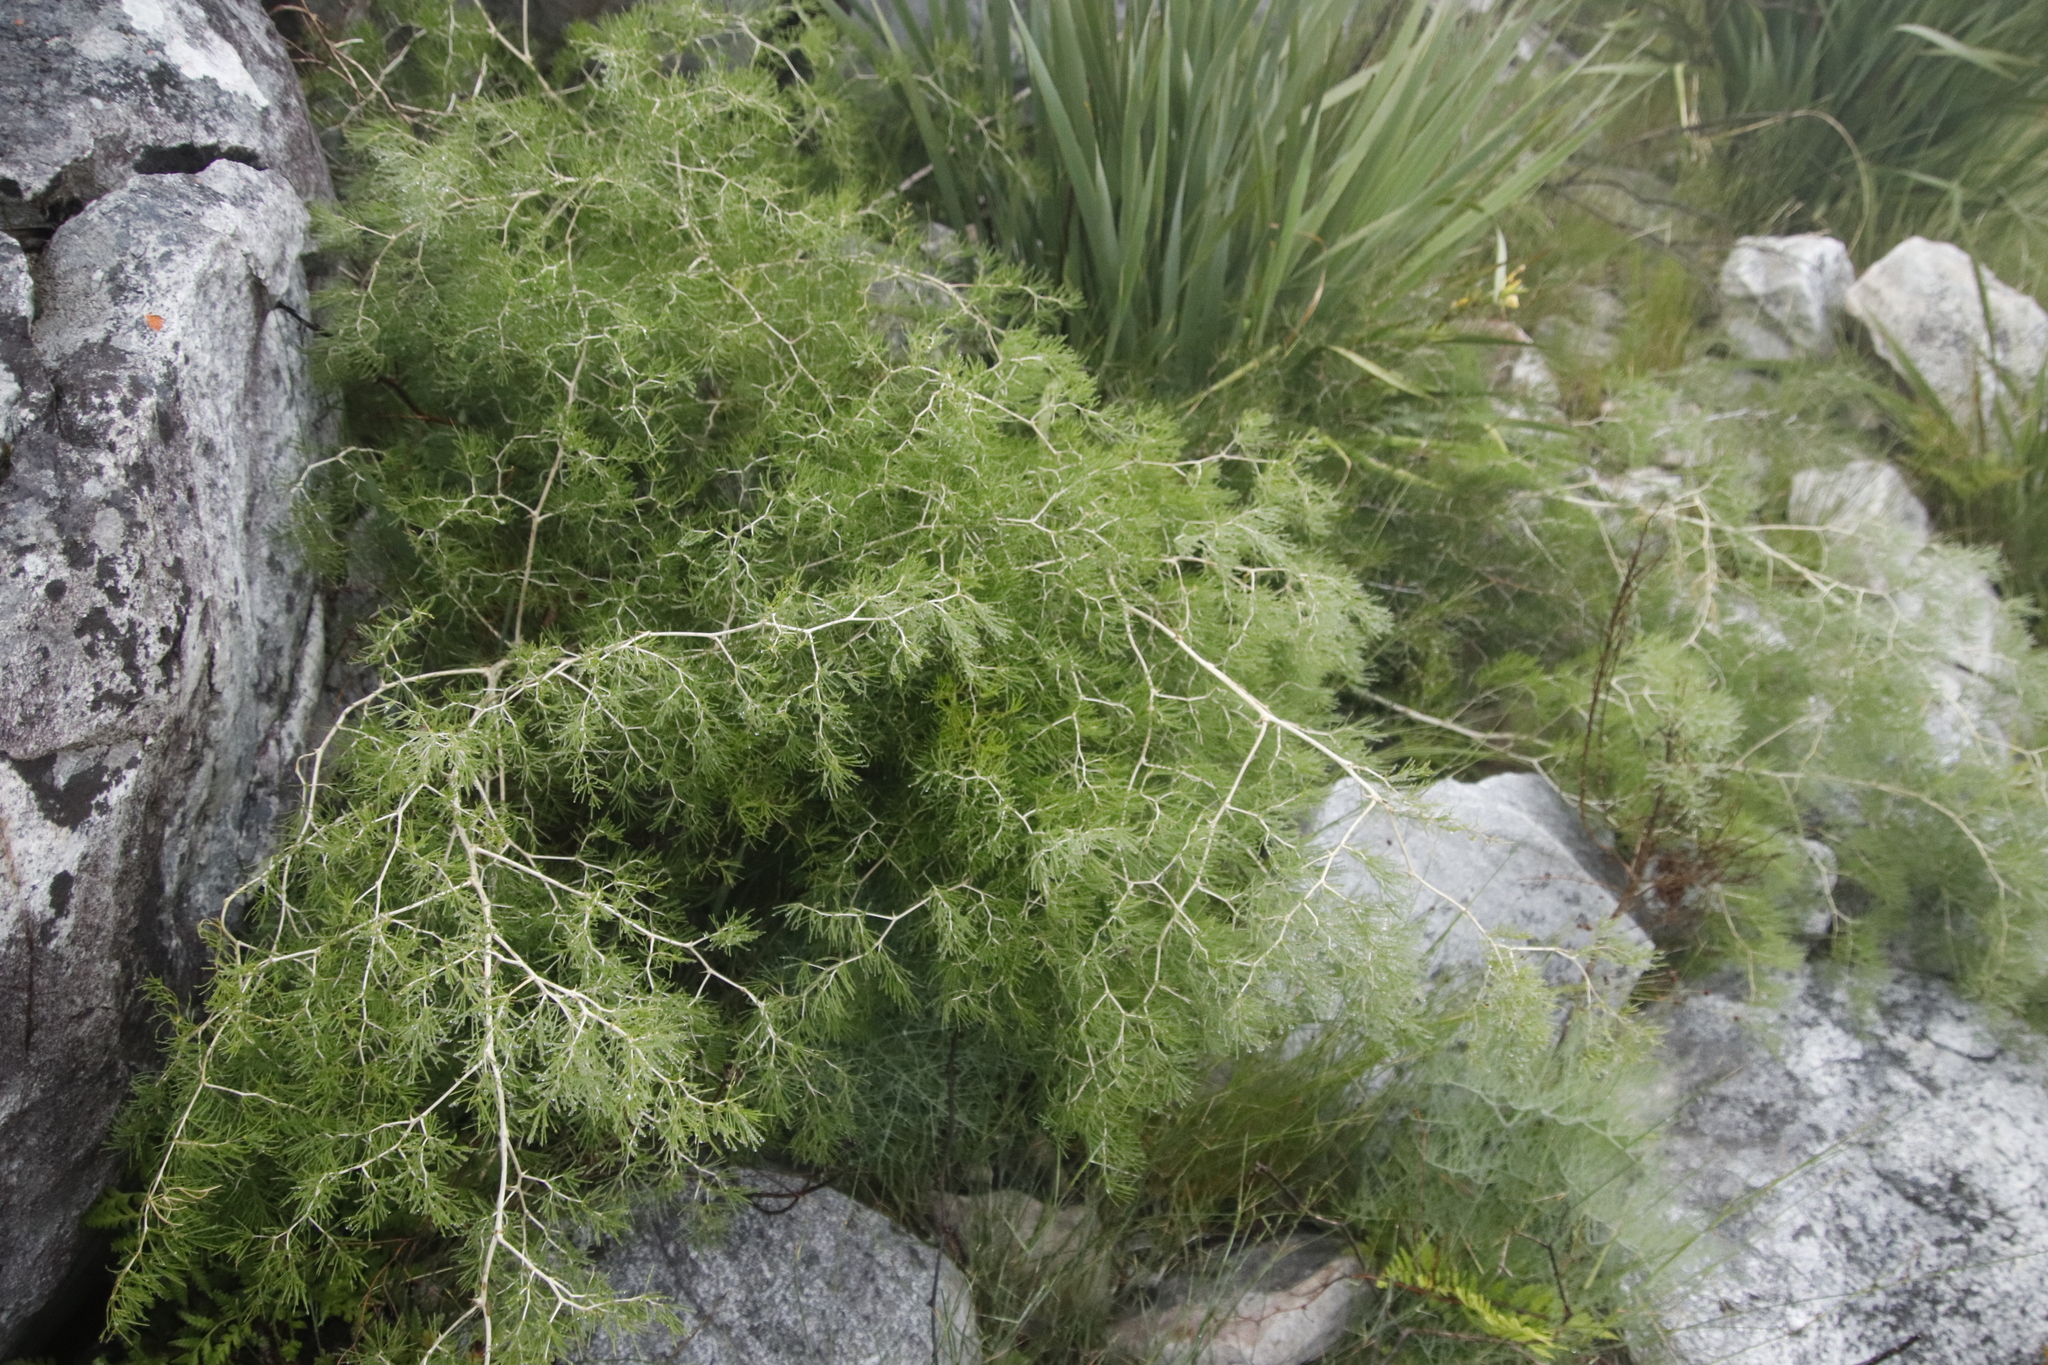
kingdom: Plantae
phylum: Tracheophyta
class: Liliopsida
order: Asparagales
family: Asparagaceae
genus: Asparagus
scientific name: Asparagus lignosus
